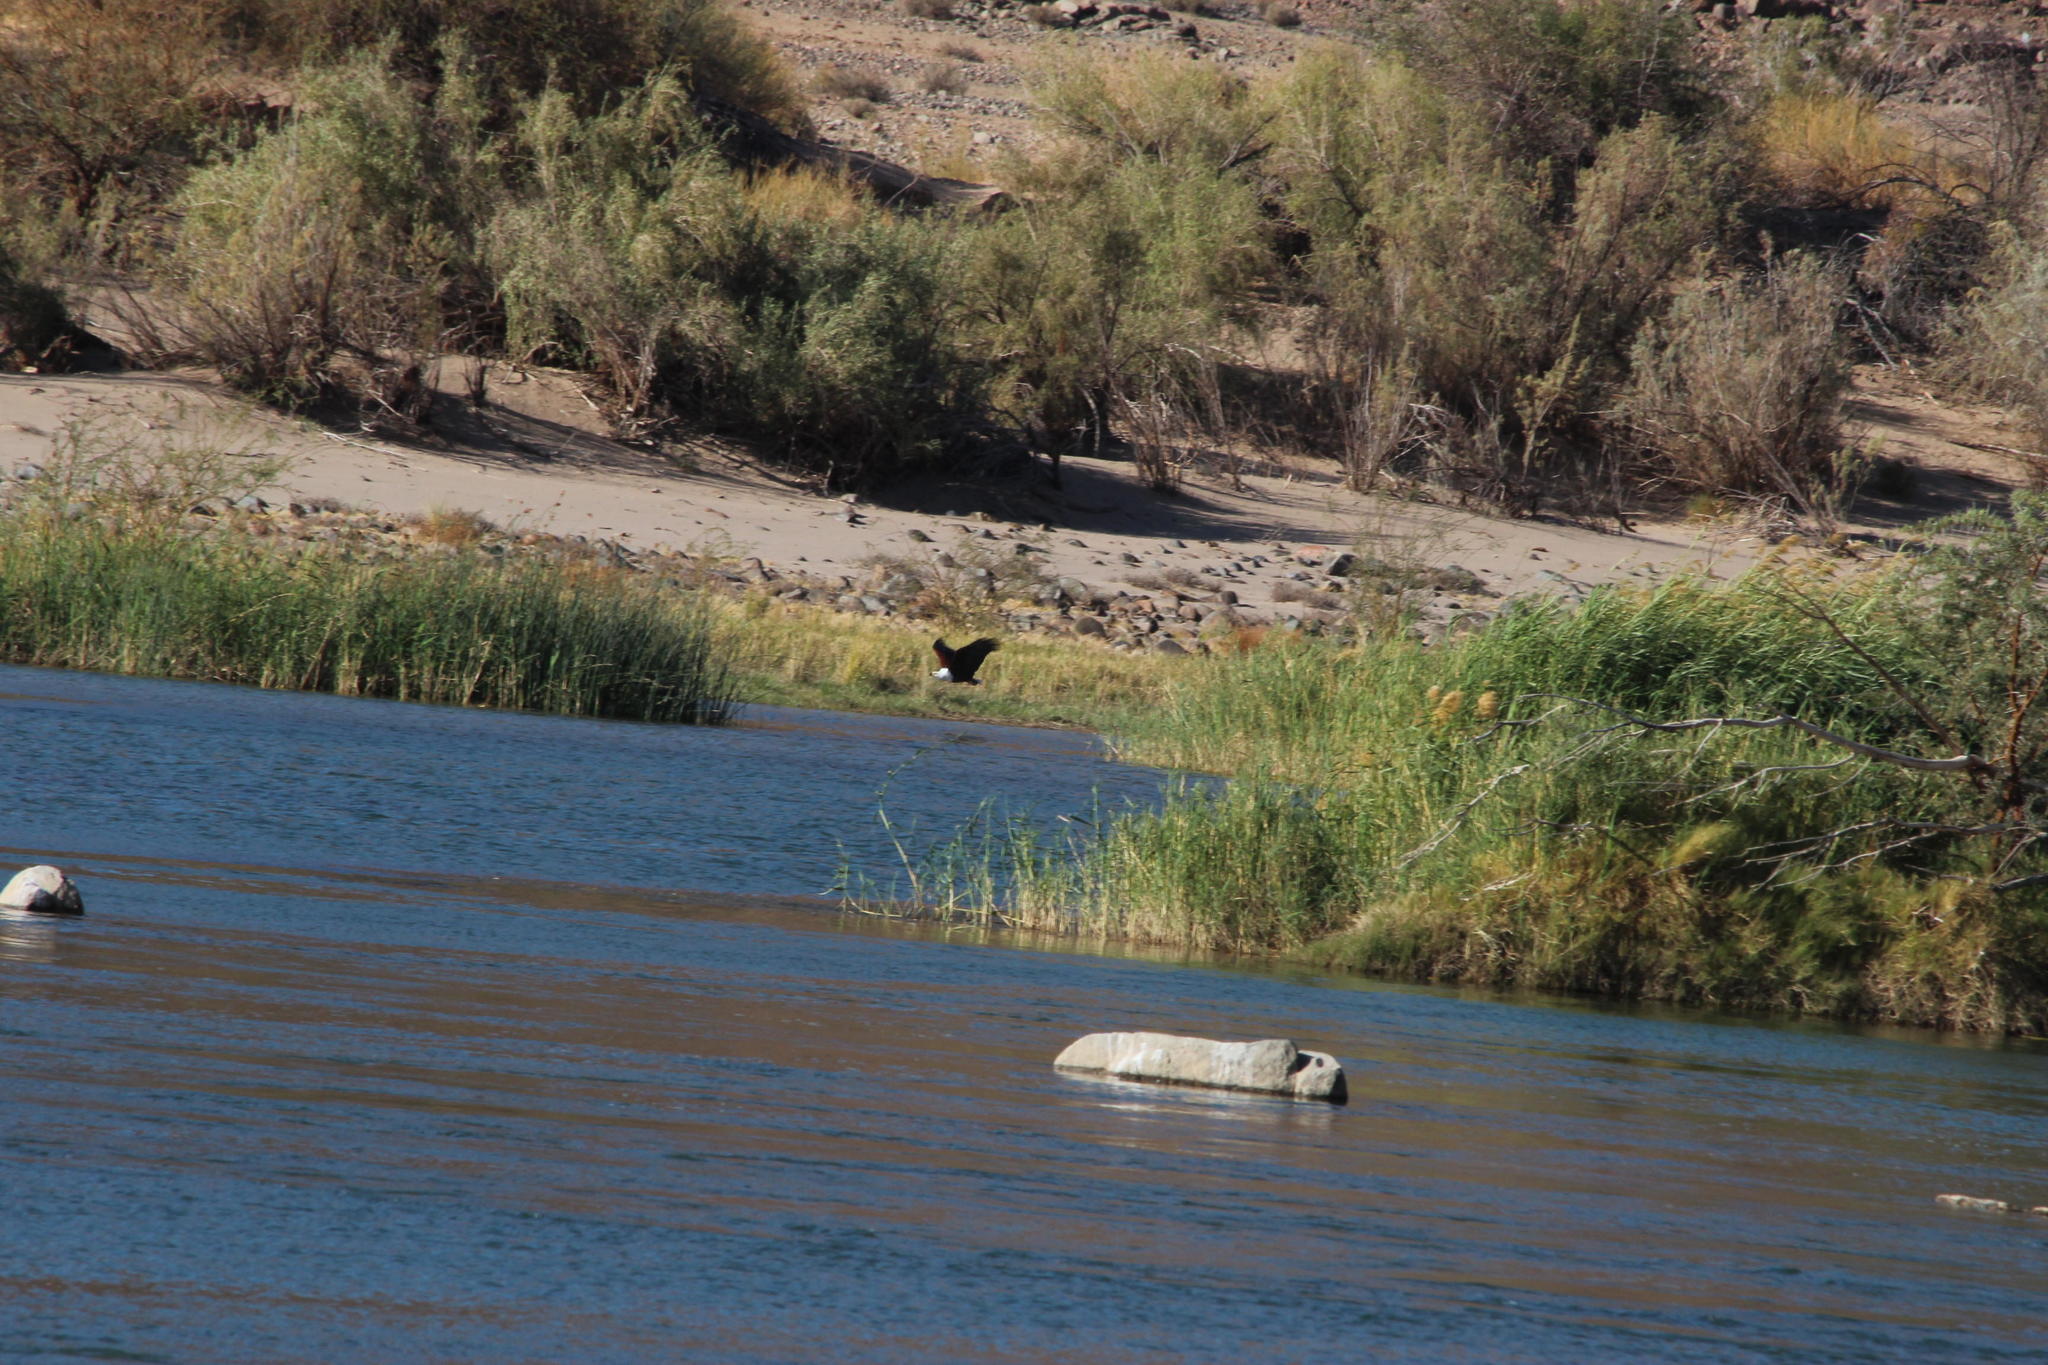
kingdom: Animalia
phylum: Chordata
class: Aves
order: Accipitriformes
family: Accipitridae
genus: Haliaeetus
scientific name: Haliaeetus vocifer
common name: African fish eagle
